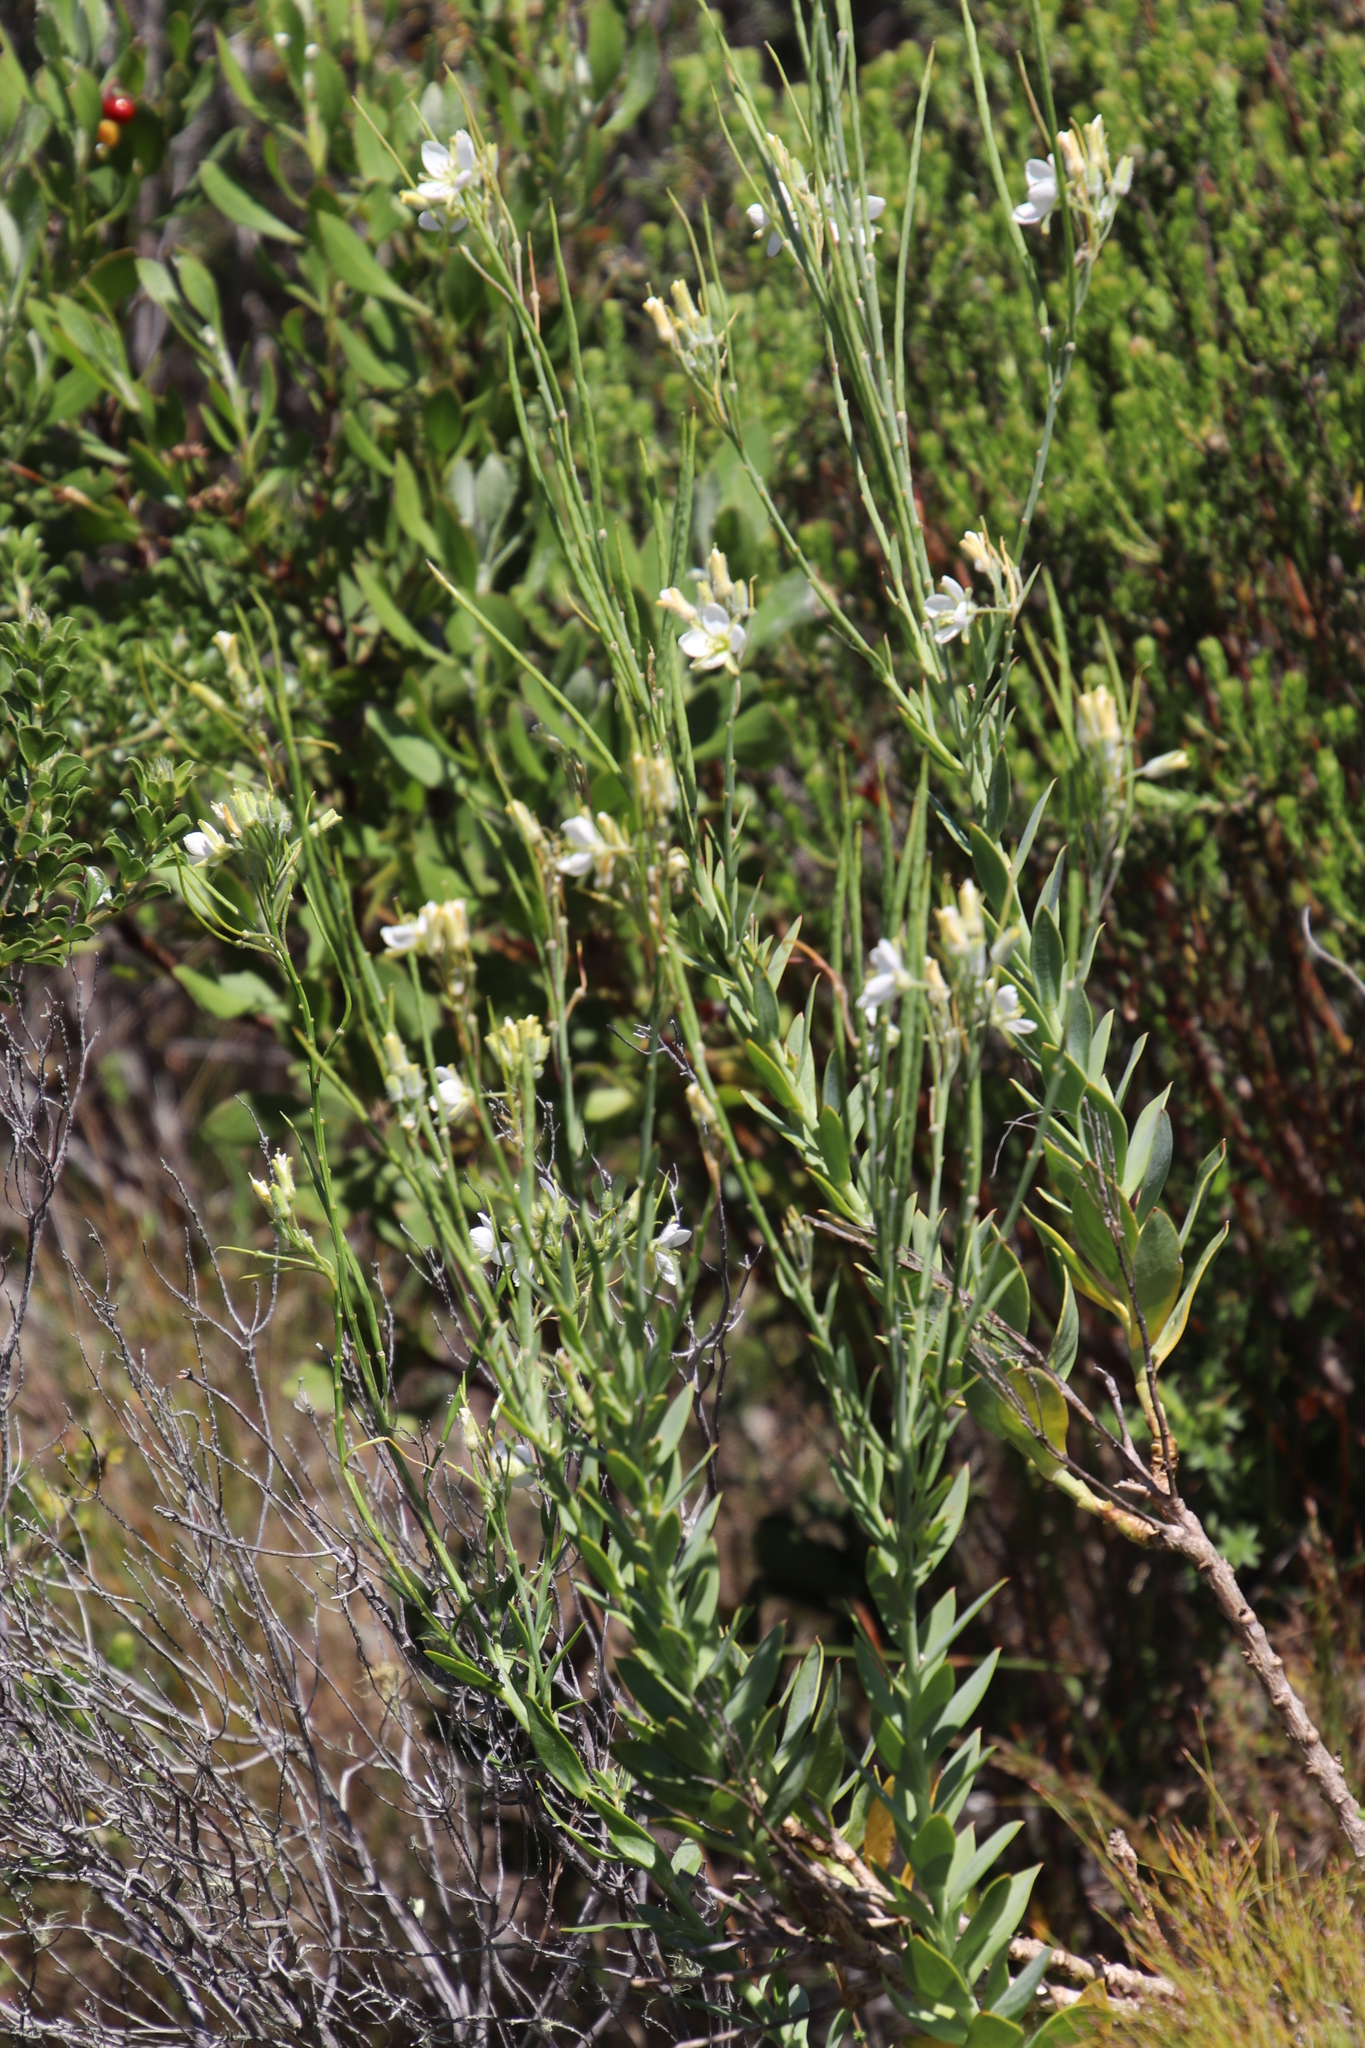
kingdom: Plantae
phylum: Tracheophyta
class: Magnoliopsida
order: Brassicales
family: Brassicaceae
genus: Heliophila
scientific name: Heliophila linearis
